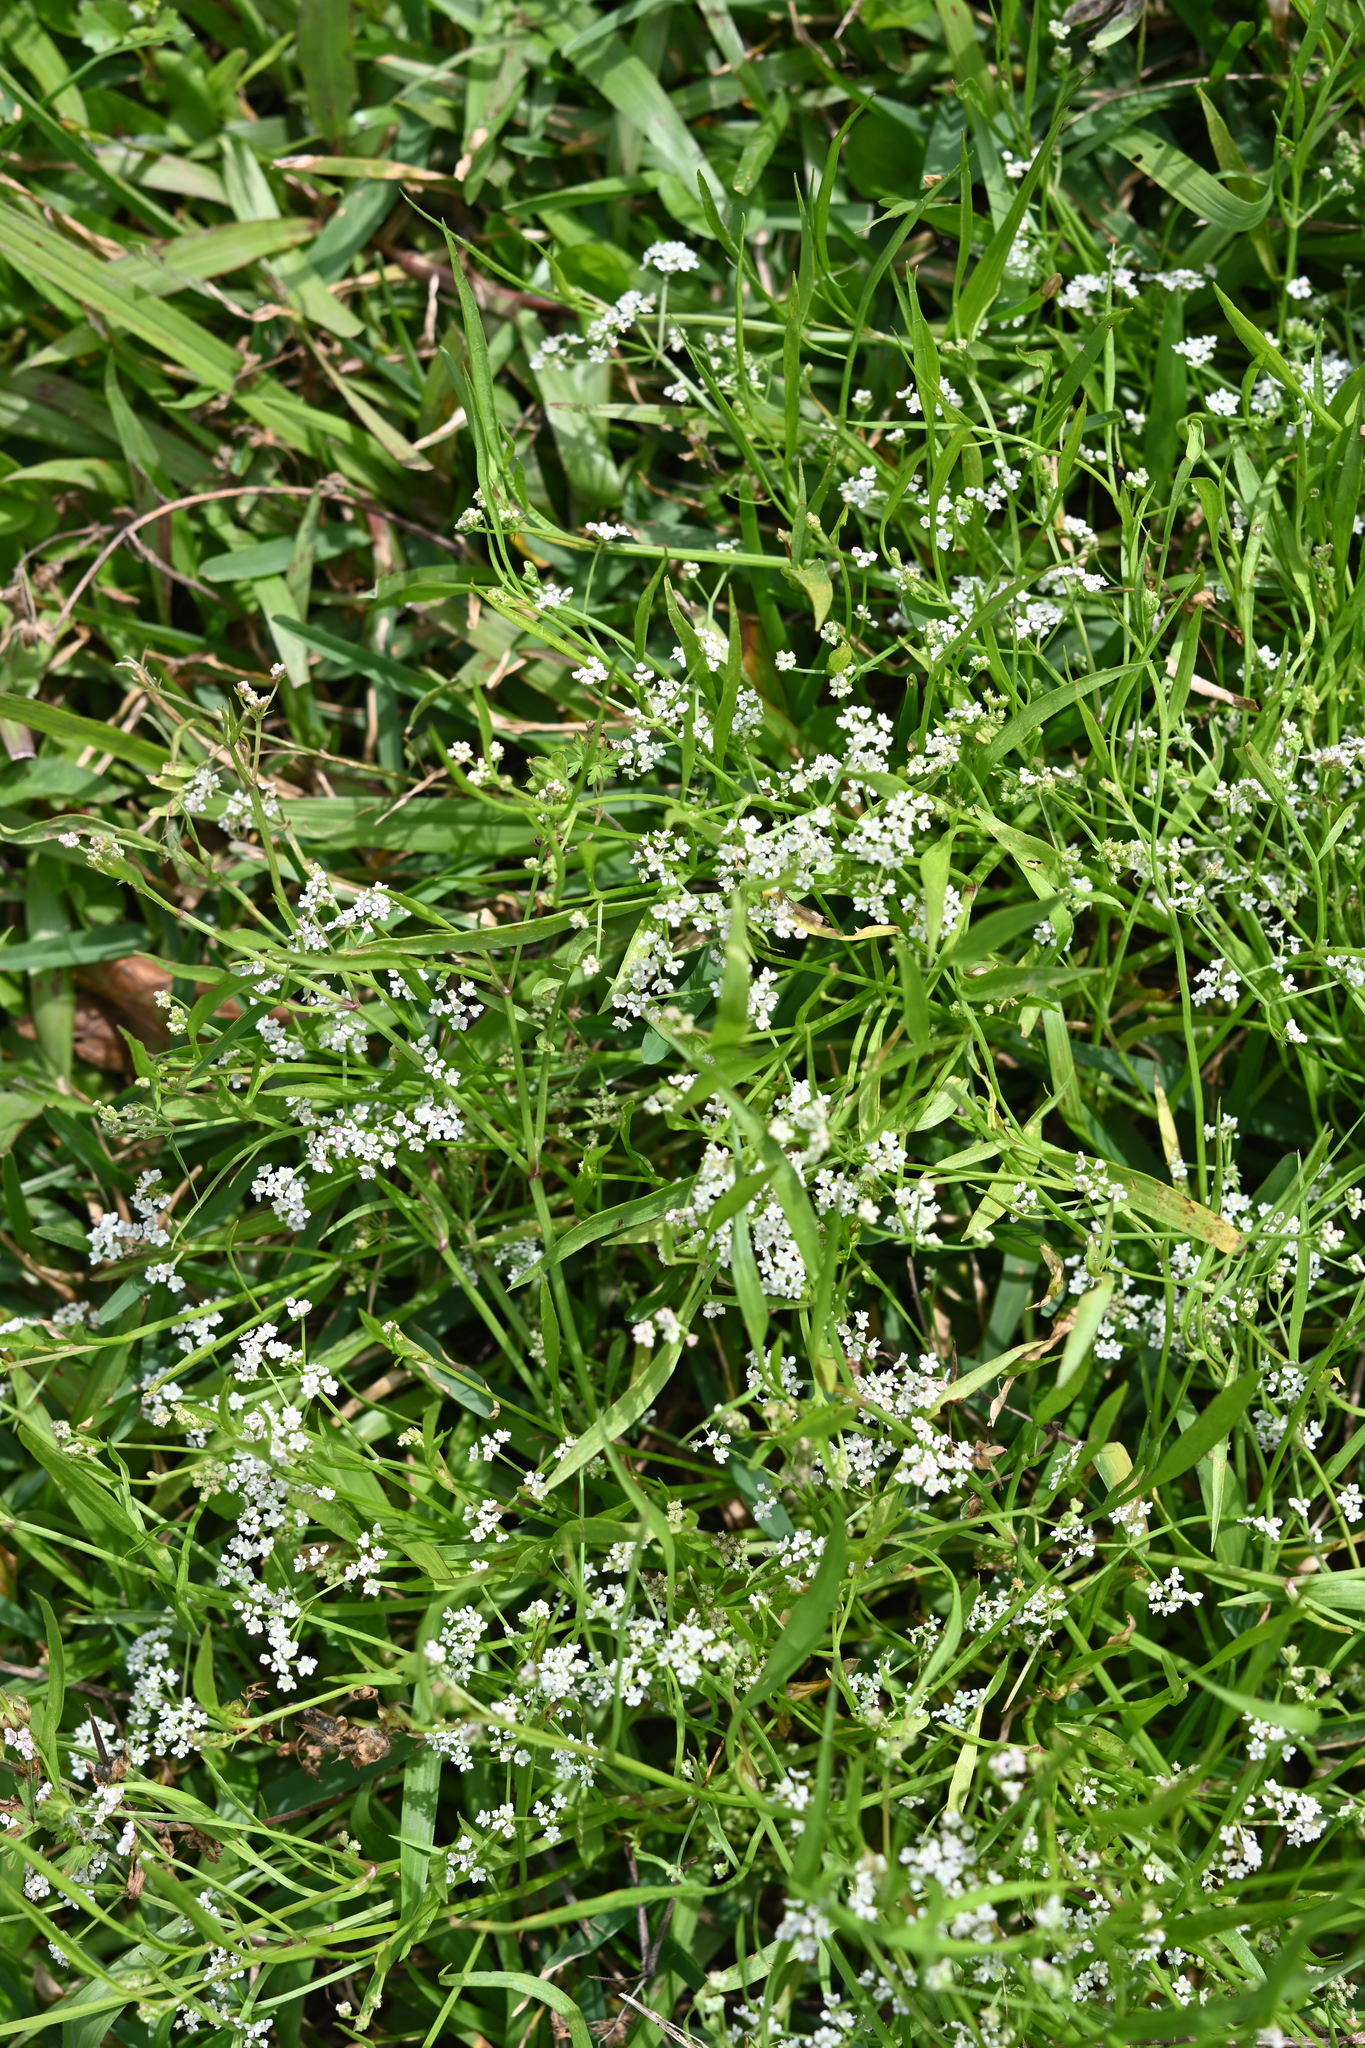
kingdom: Plantae
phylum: Tracheophyta
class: Magnoliopsida
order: Apiales
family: Apiaceae
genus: Limnosciadium
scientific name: Limnosciadium pinnatum
